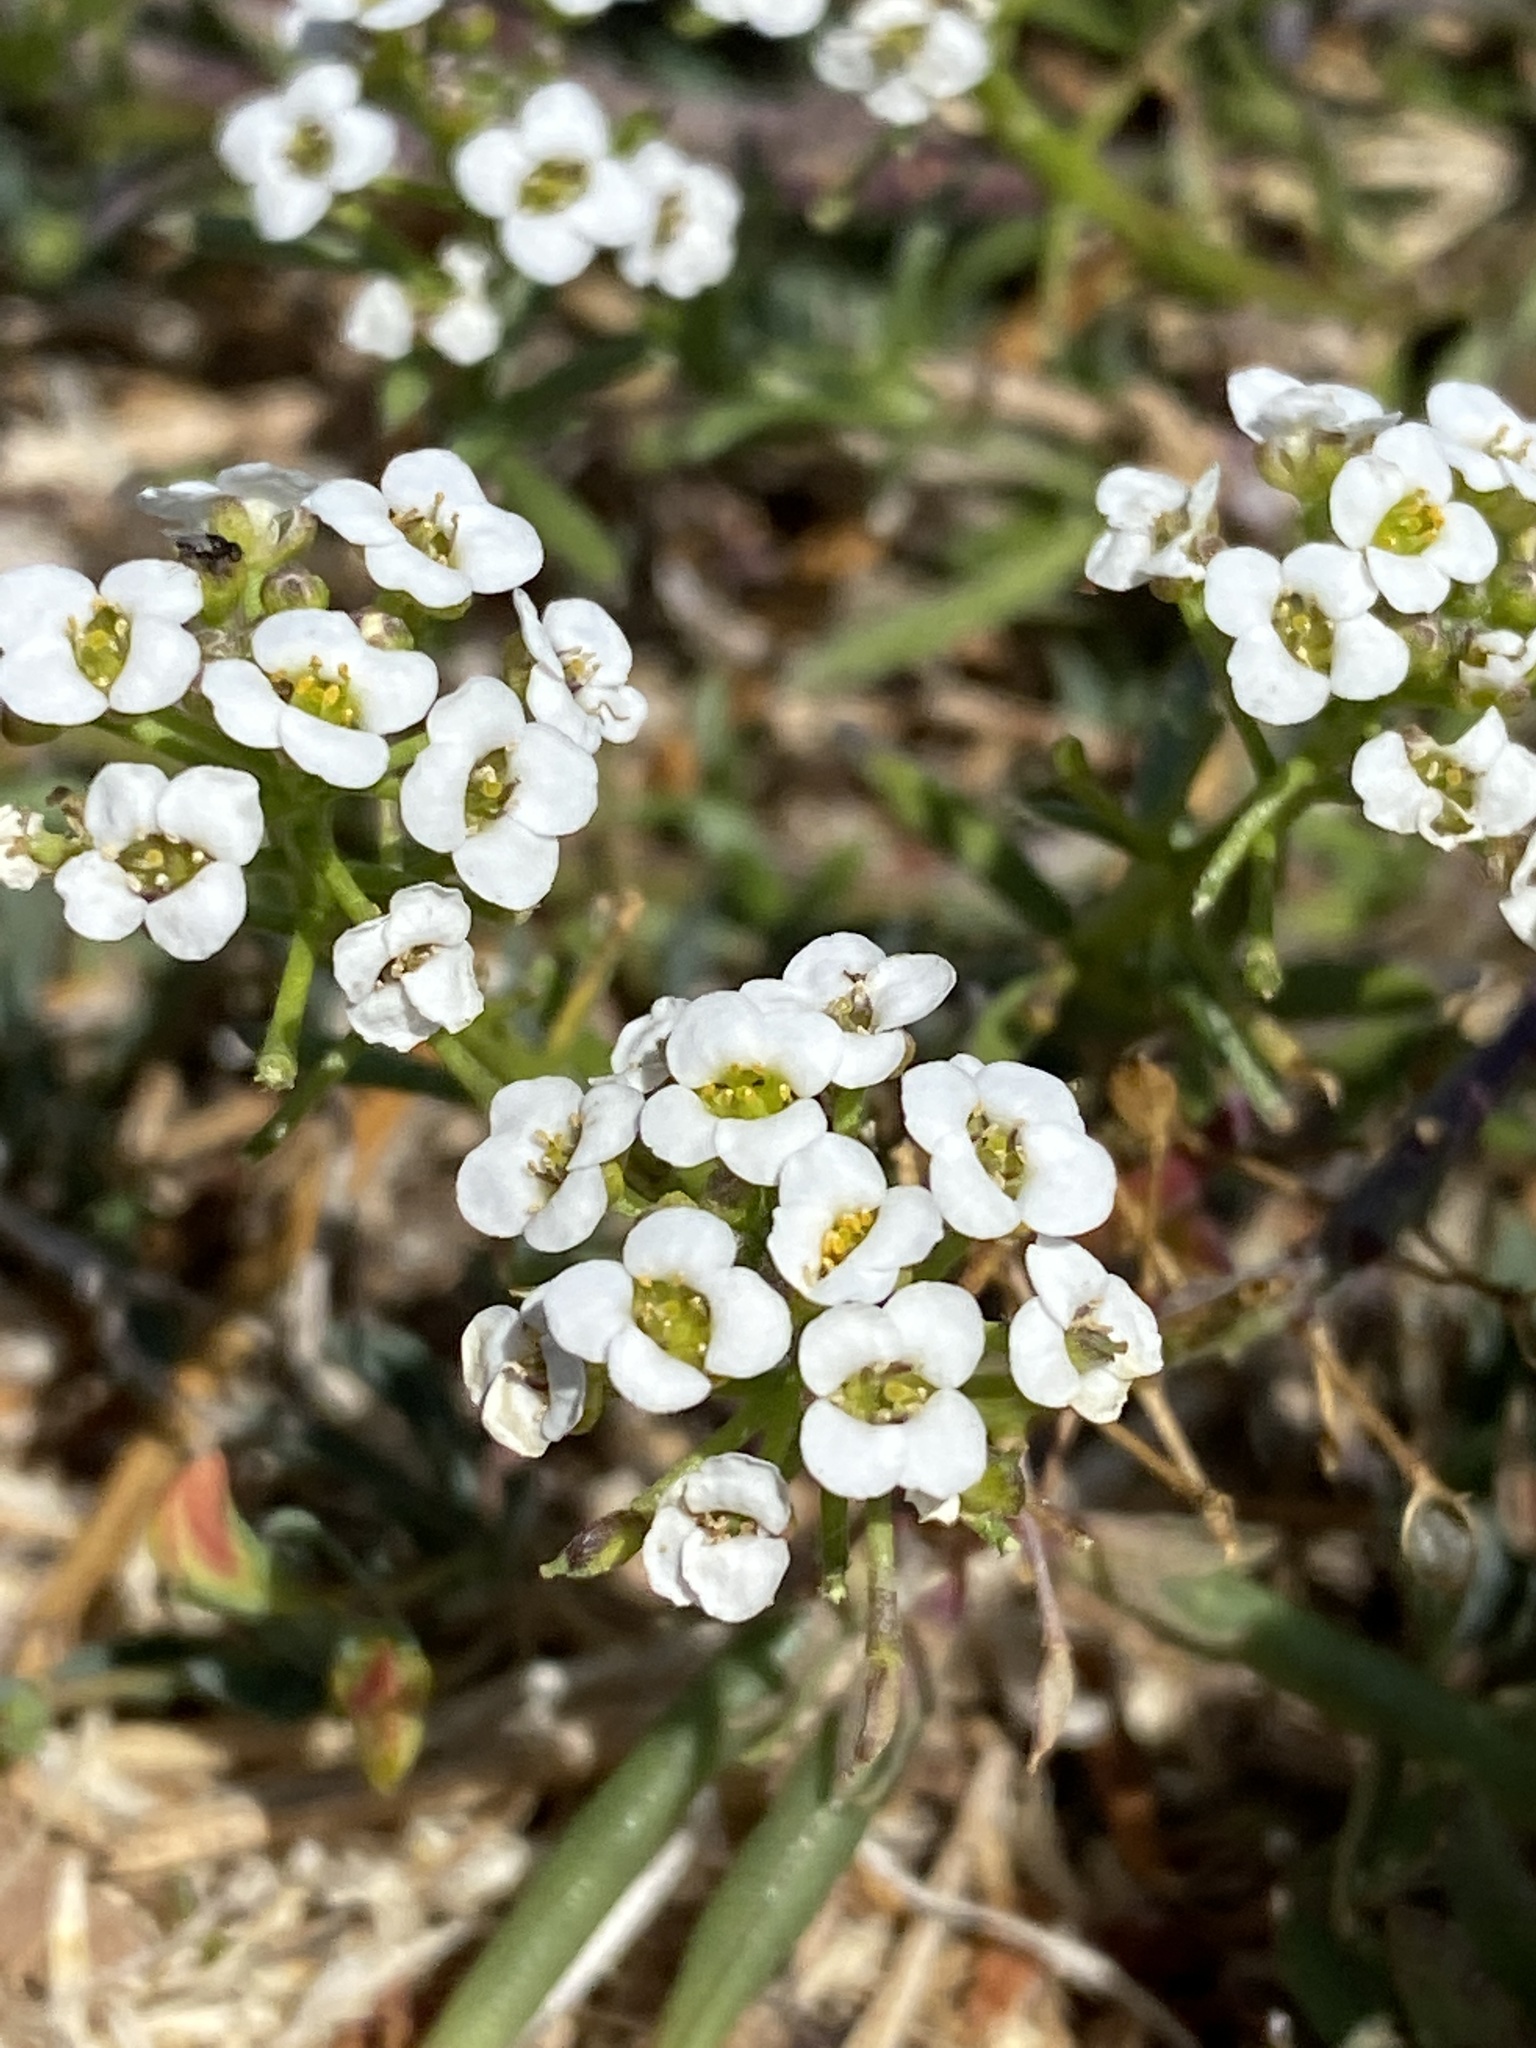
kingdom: Plantae
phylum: Tracheophyta
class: Magnoliopsida
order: Brassicales
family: Brassicaceae
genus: Lobularia
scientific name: Lobularia maritima
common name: Sweet alison
